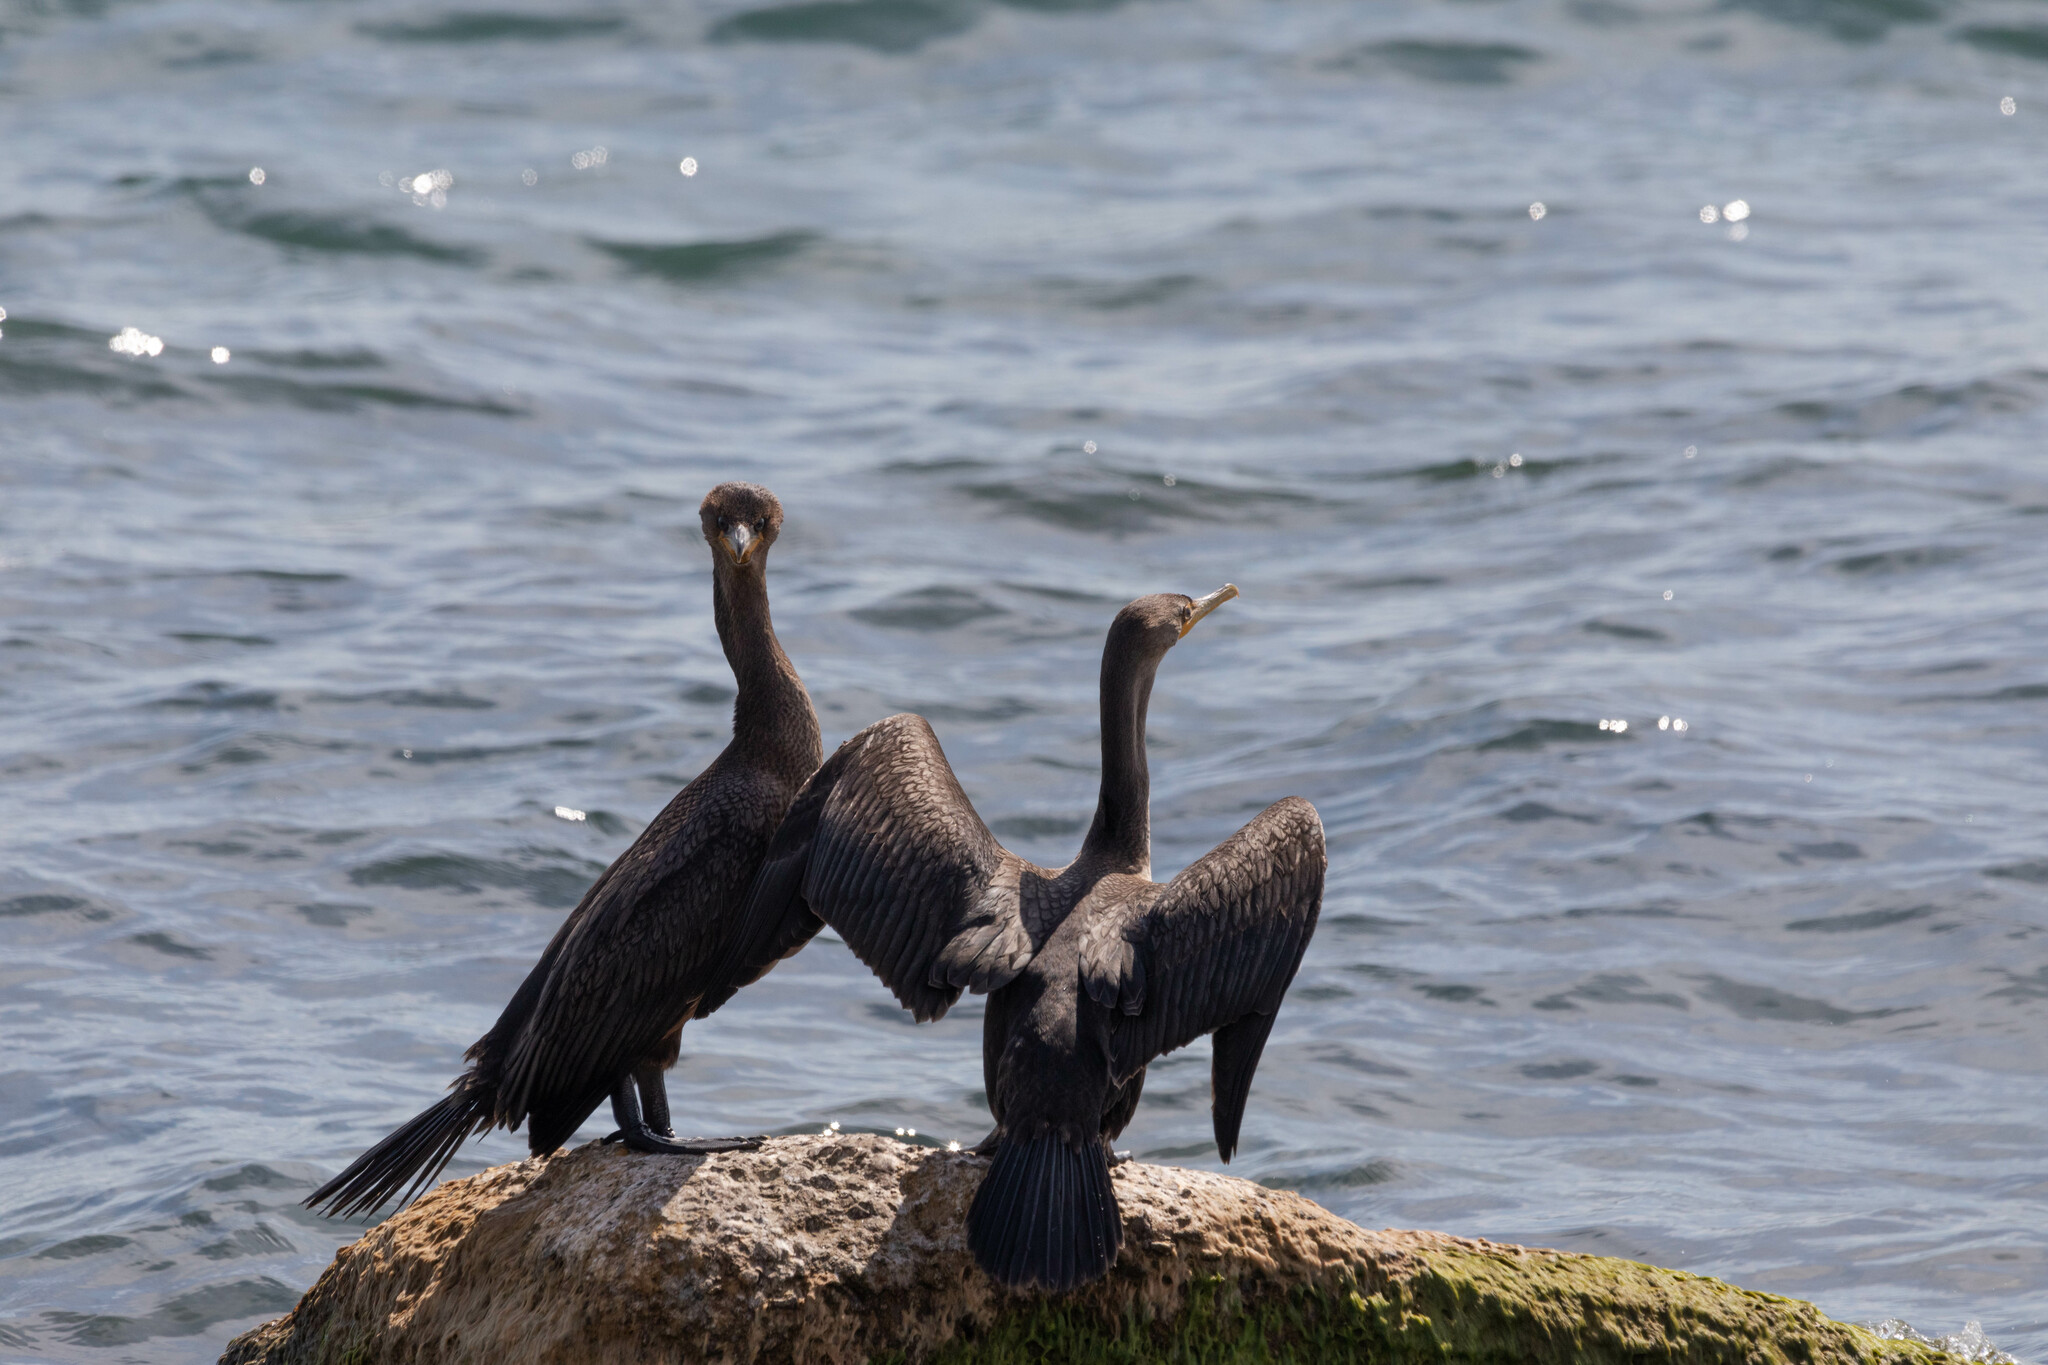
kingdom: Animalia
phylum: Chordata
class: Aves
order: Suliformes
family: Phalacrocoracidae
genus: Phalacrocorax
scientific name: Phalacrocorax auritus
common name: Double-crested cormorant
